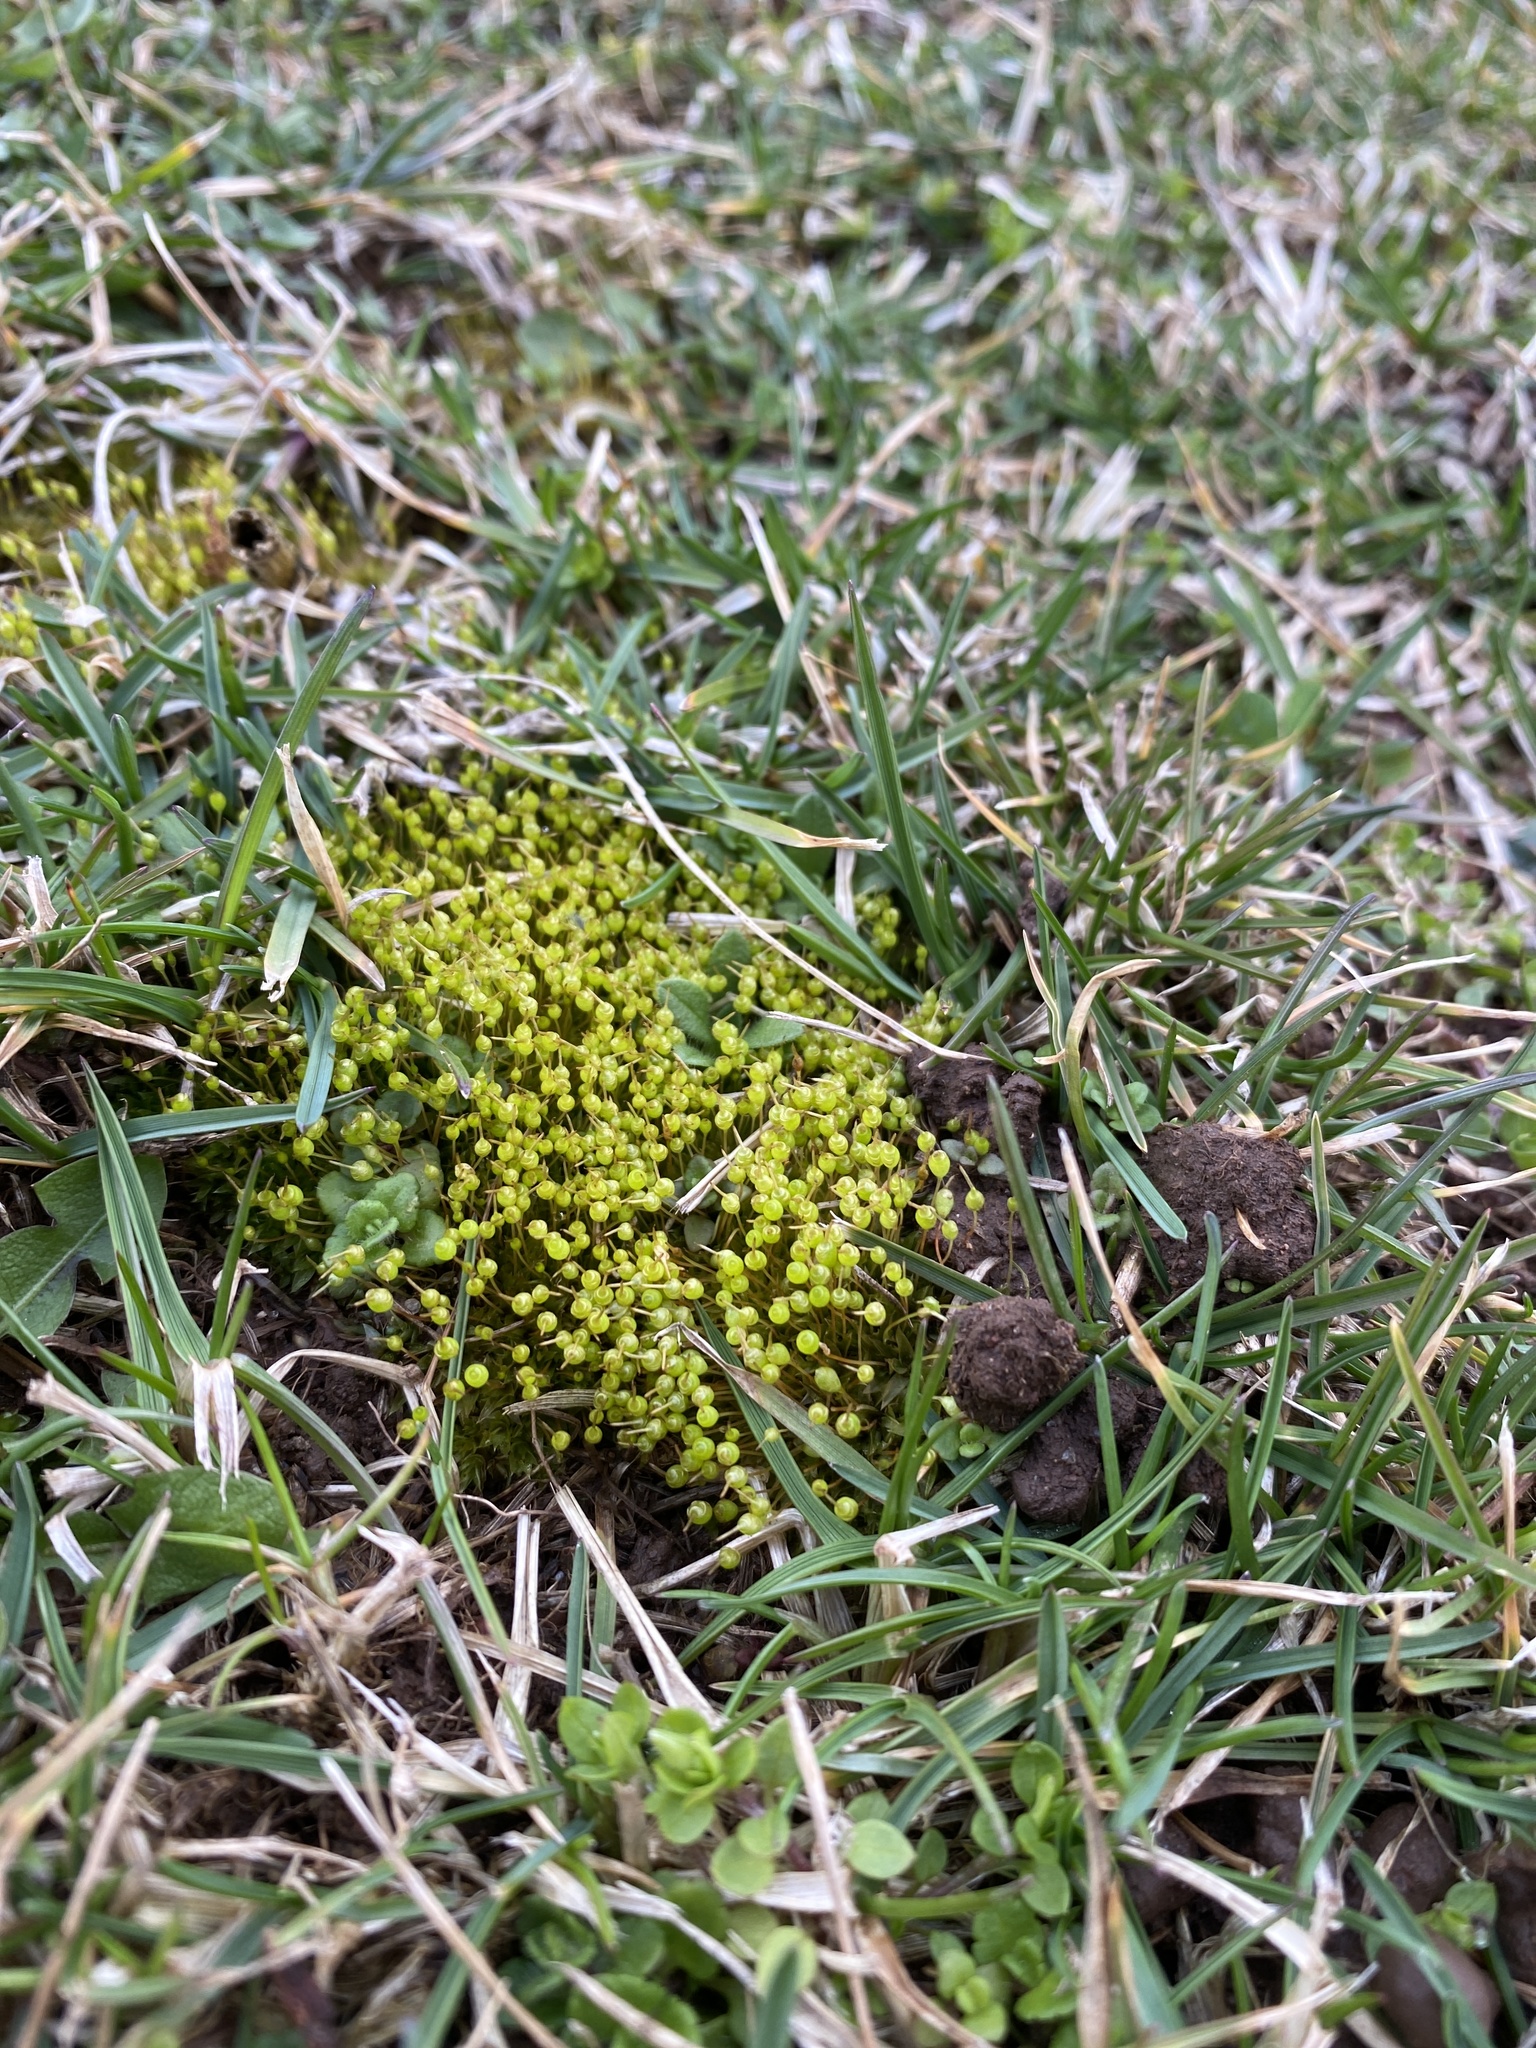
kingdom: Plantae
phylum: Bryophyta
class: Bryopsida
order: Funariales
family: Funariaceae
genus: Physcomitrium
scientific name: Physcomitrium pyriforme
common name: Common bladder-moss
